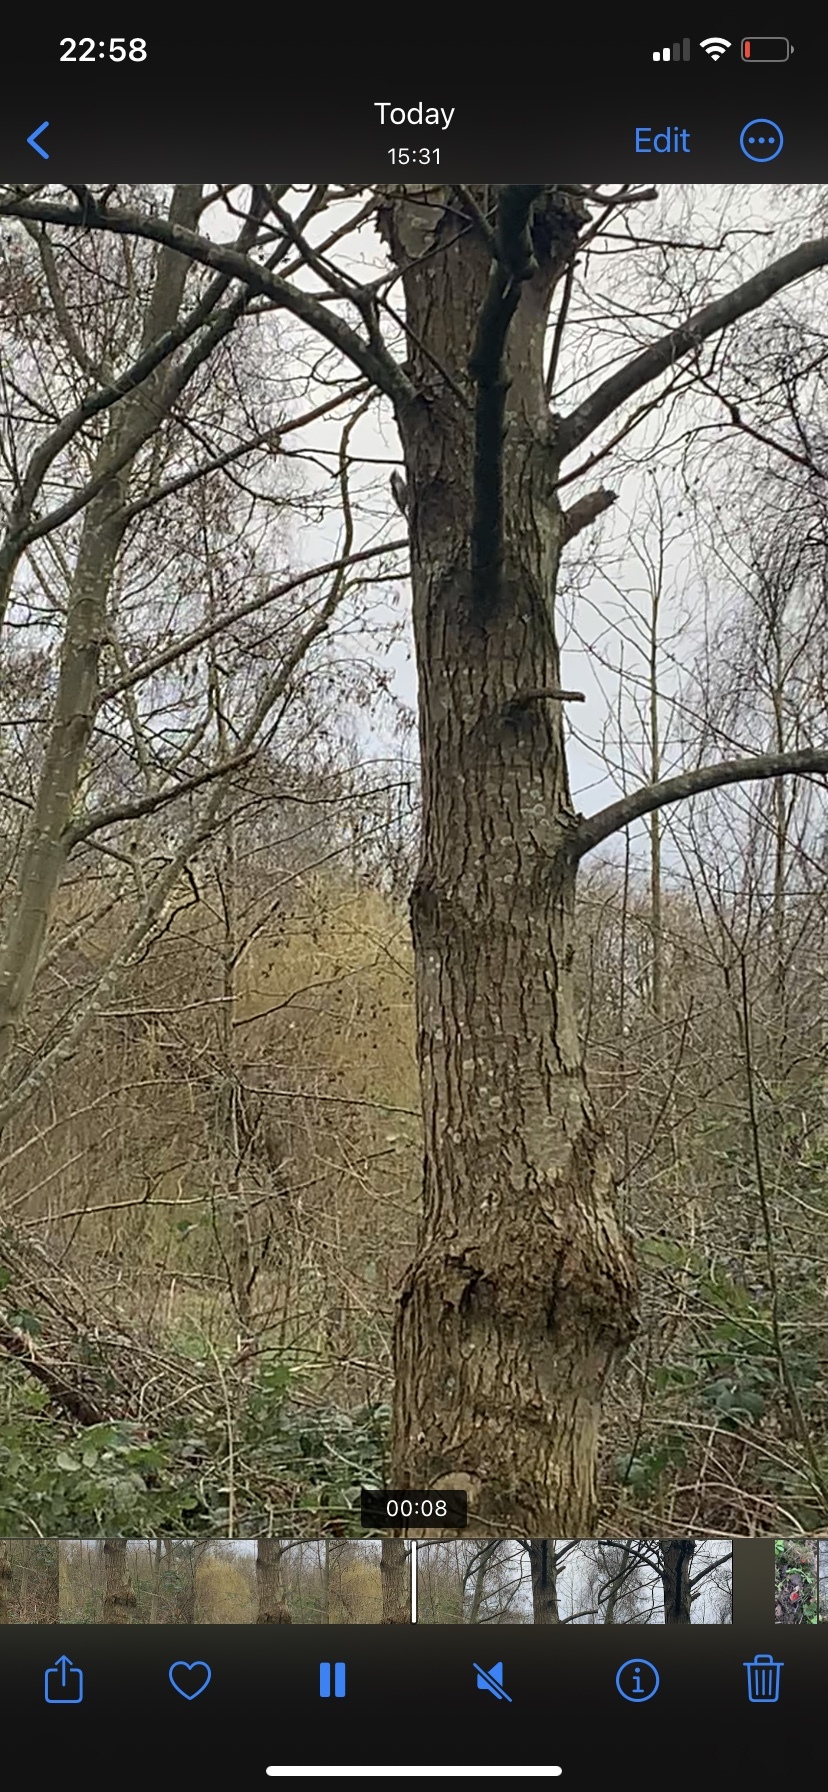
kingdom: Animalia
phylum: Chordata
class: Aves
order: Passeriformes
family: Certhiidae
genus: Certhia
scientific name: Certhia familiaris
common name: Eurasian treecreeper
